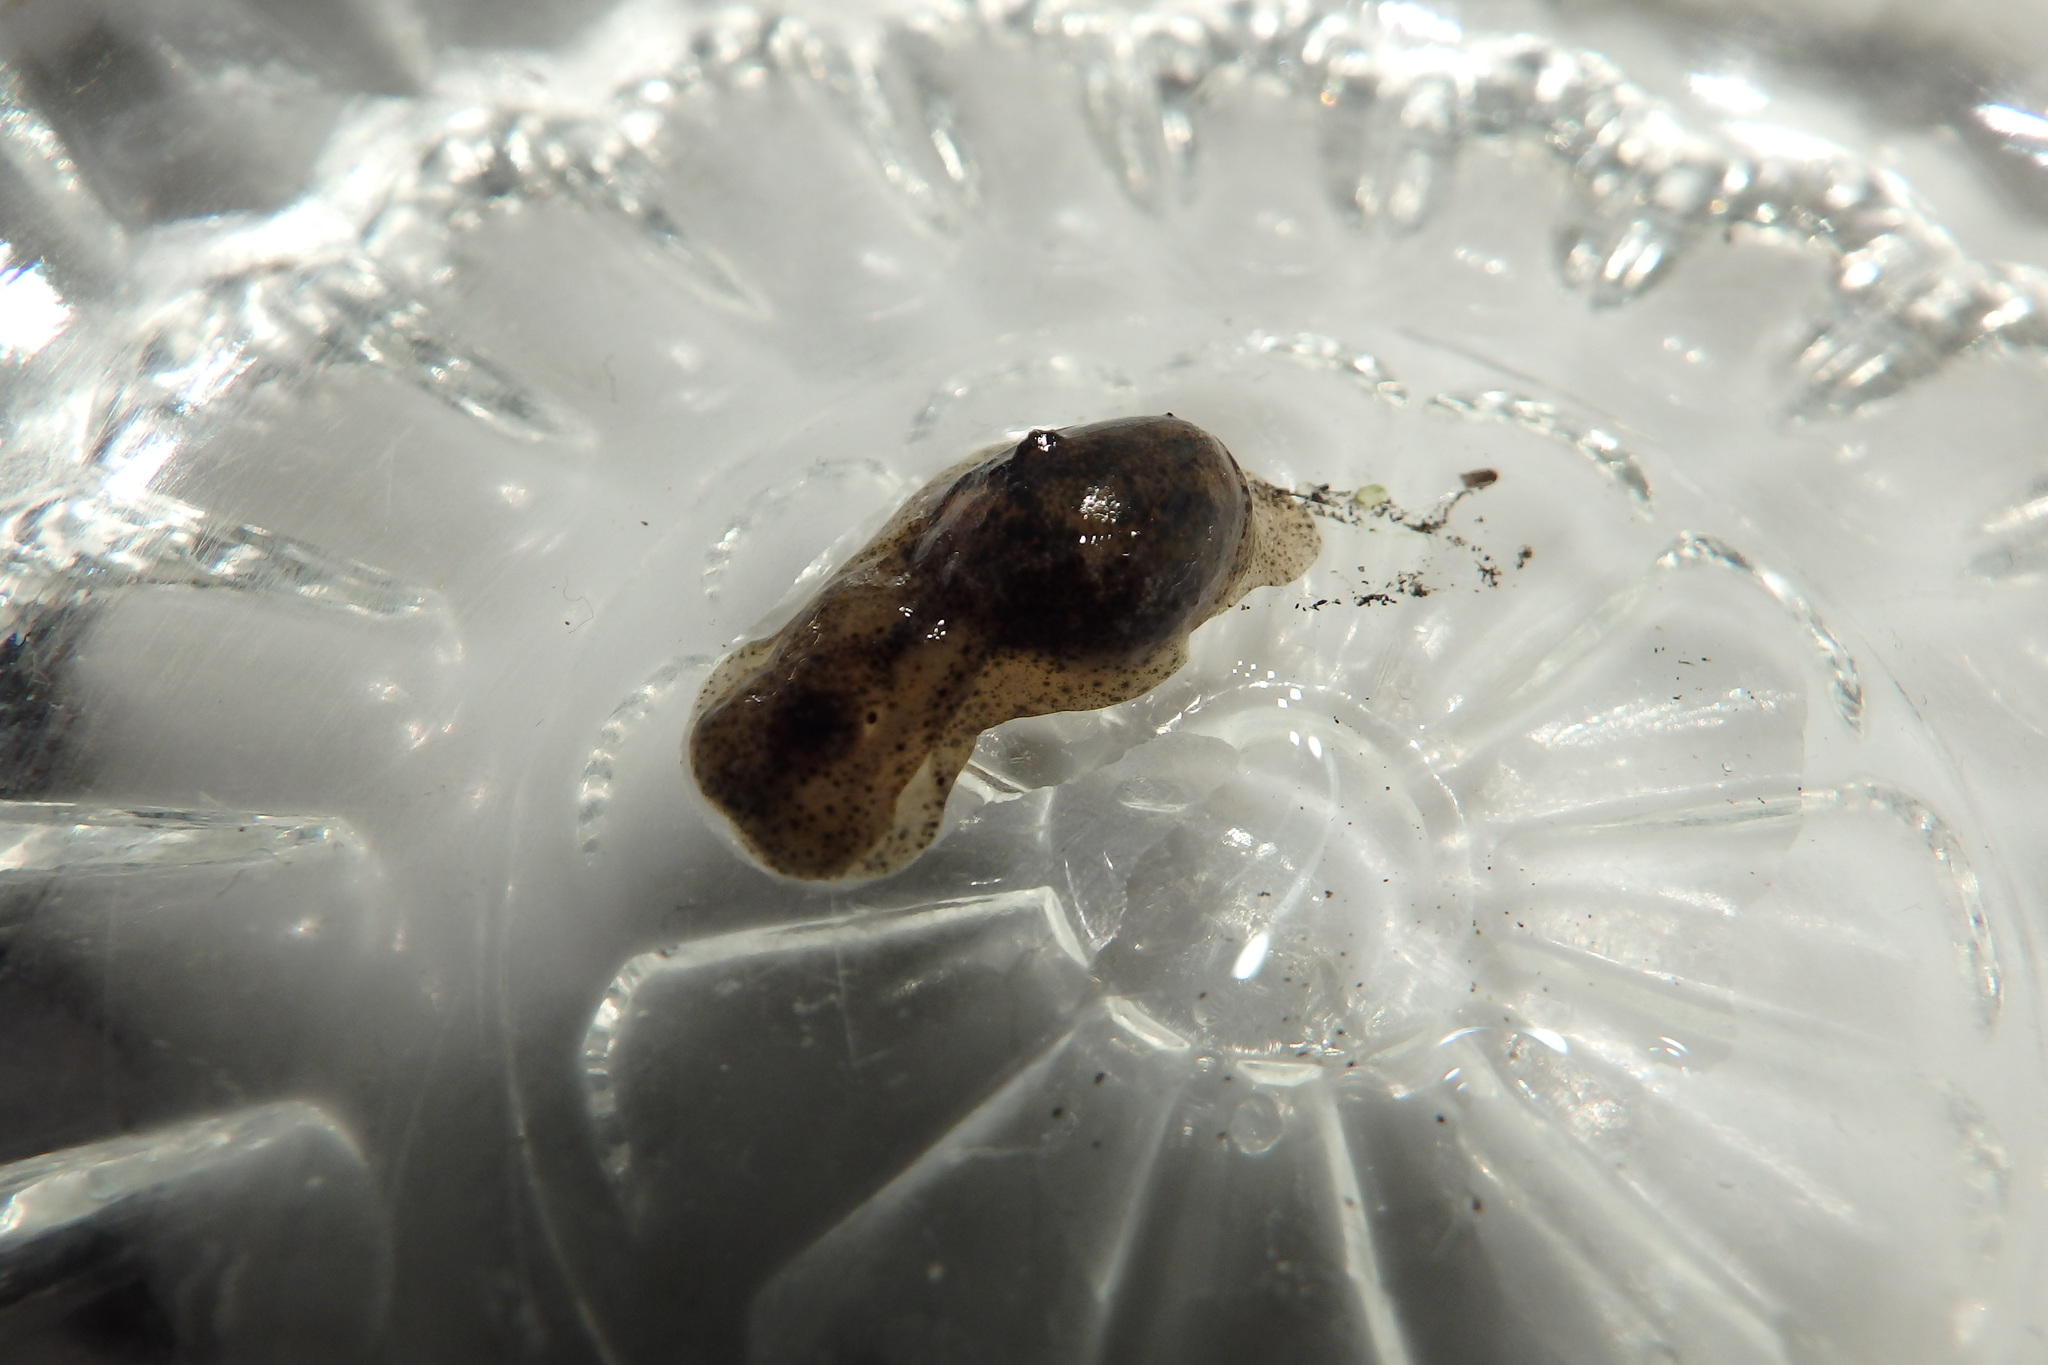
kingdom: Animalia
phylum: Mollusca
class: Gastropoda
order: Cephalaspidea
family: Haminoeidae
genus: Haminoea
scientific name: Haminoea navicula
